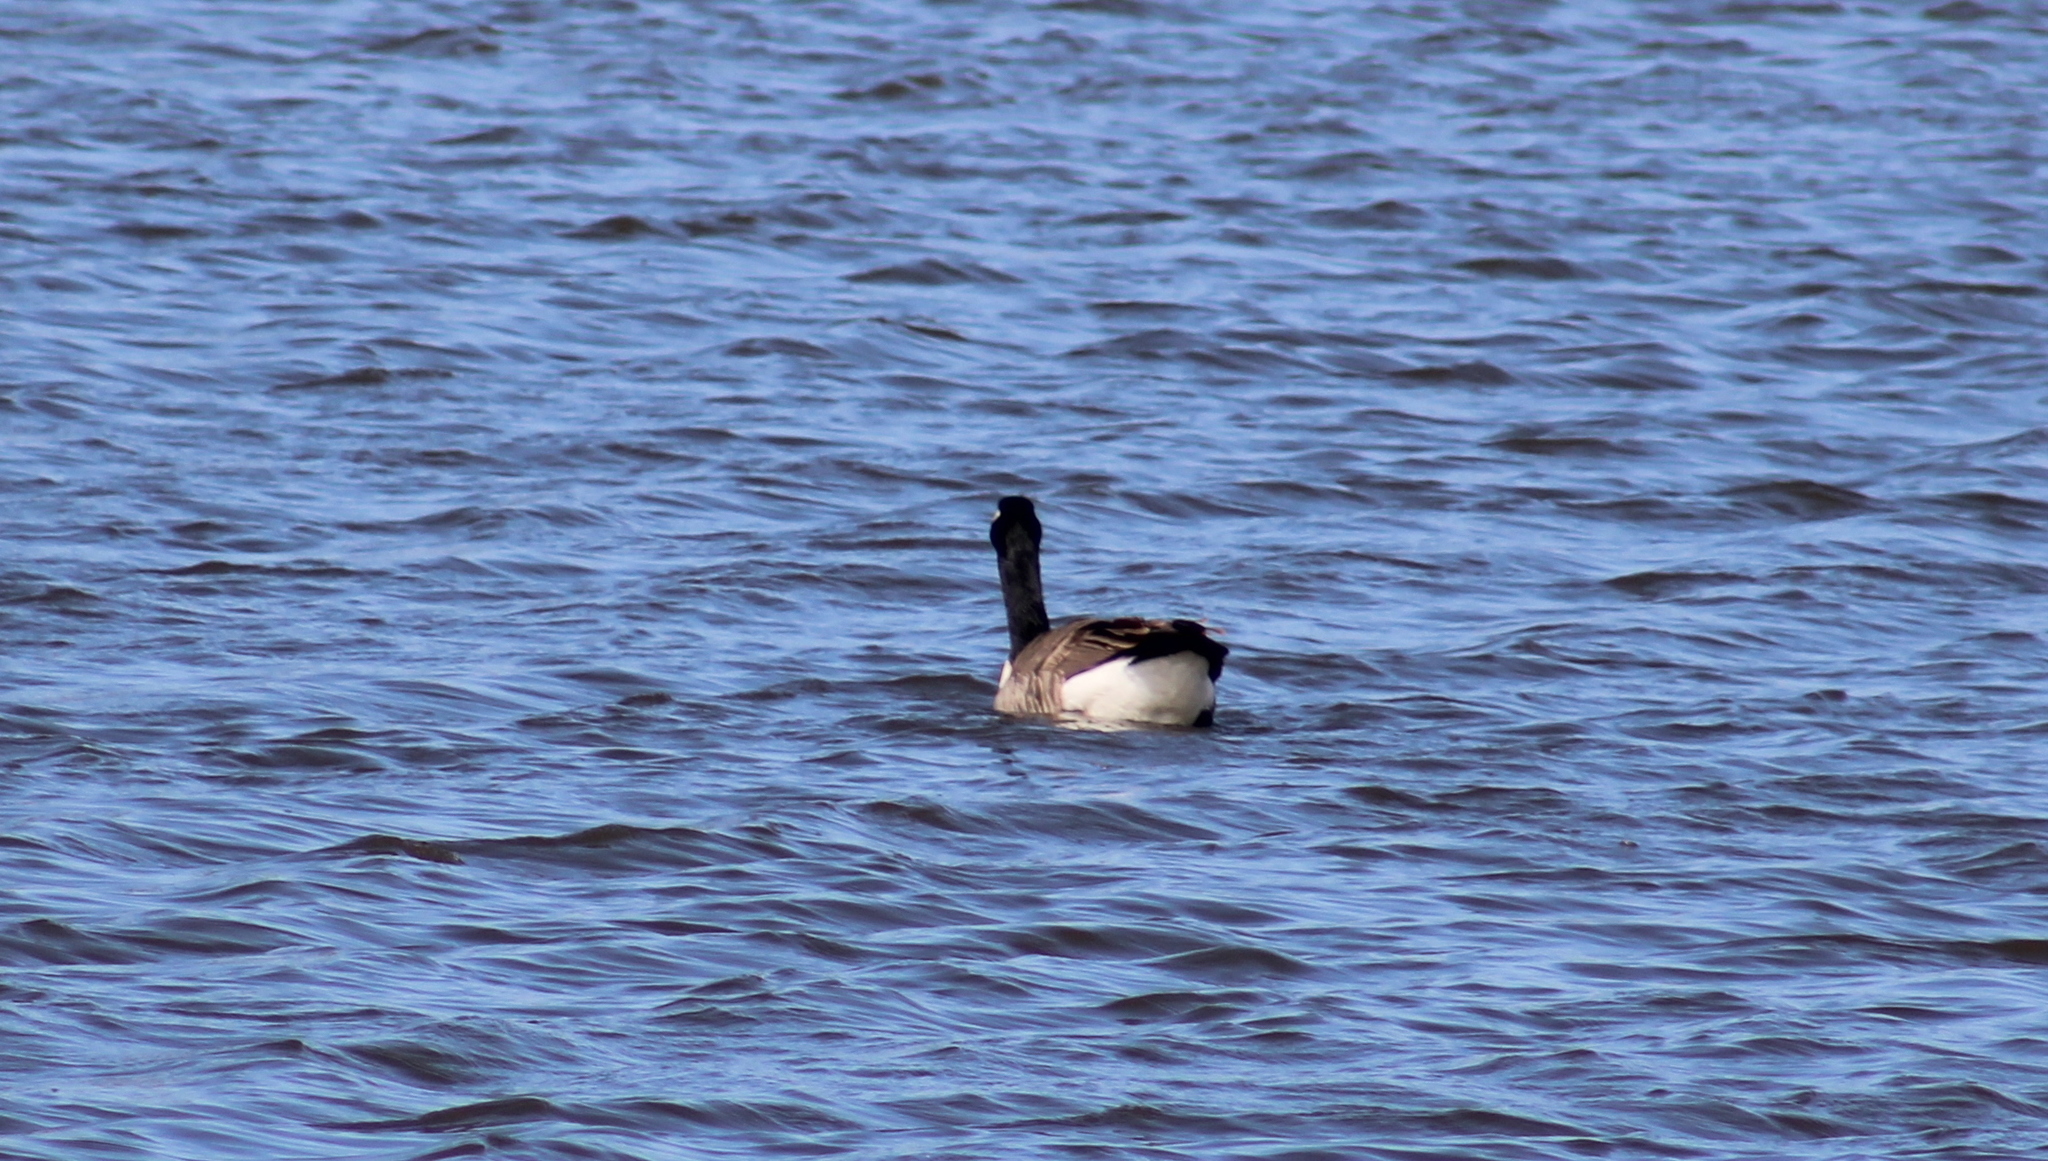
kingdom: Animalia
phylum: Chordata
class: Aves
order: Anseriformes
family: Anatidae
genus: Branta
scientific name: Branta canadensis
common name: Canada goose
